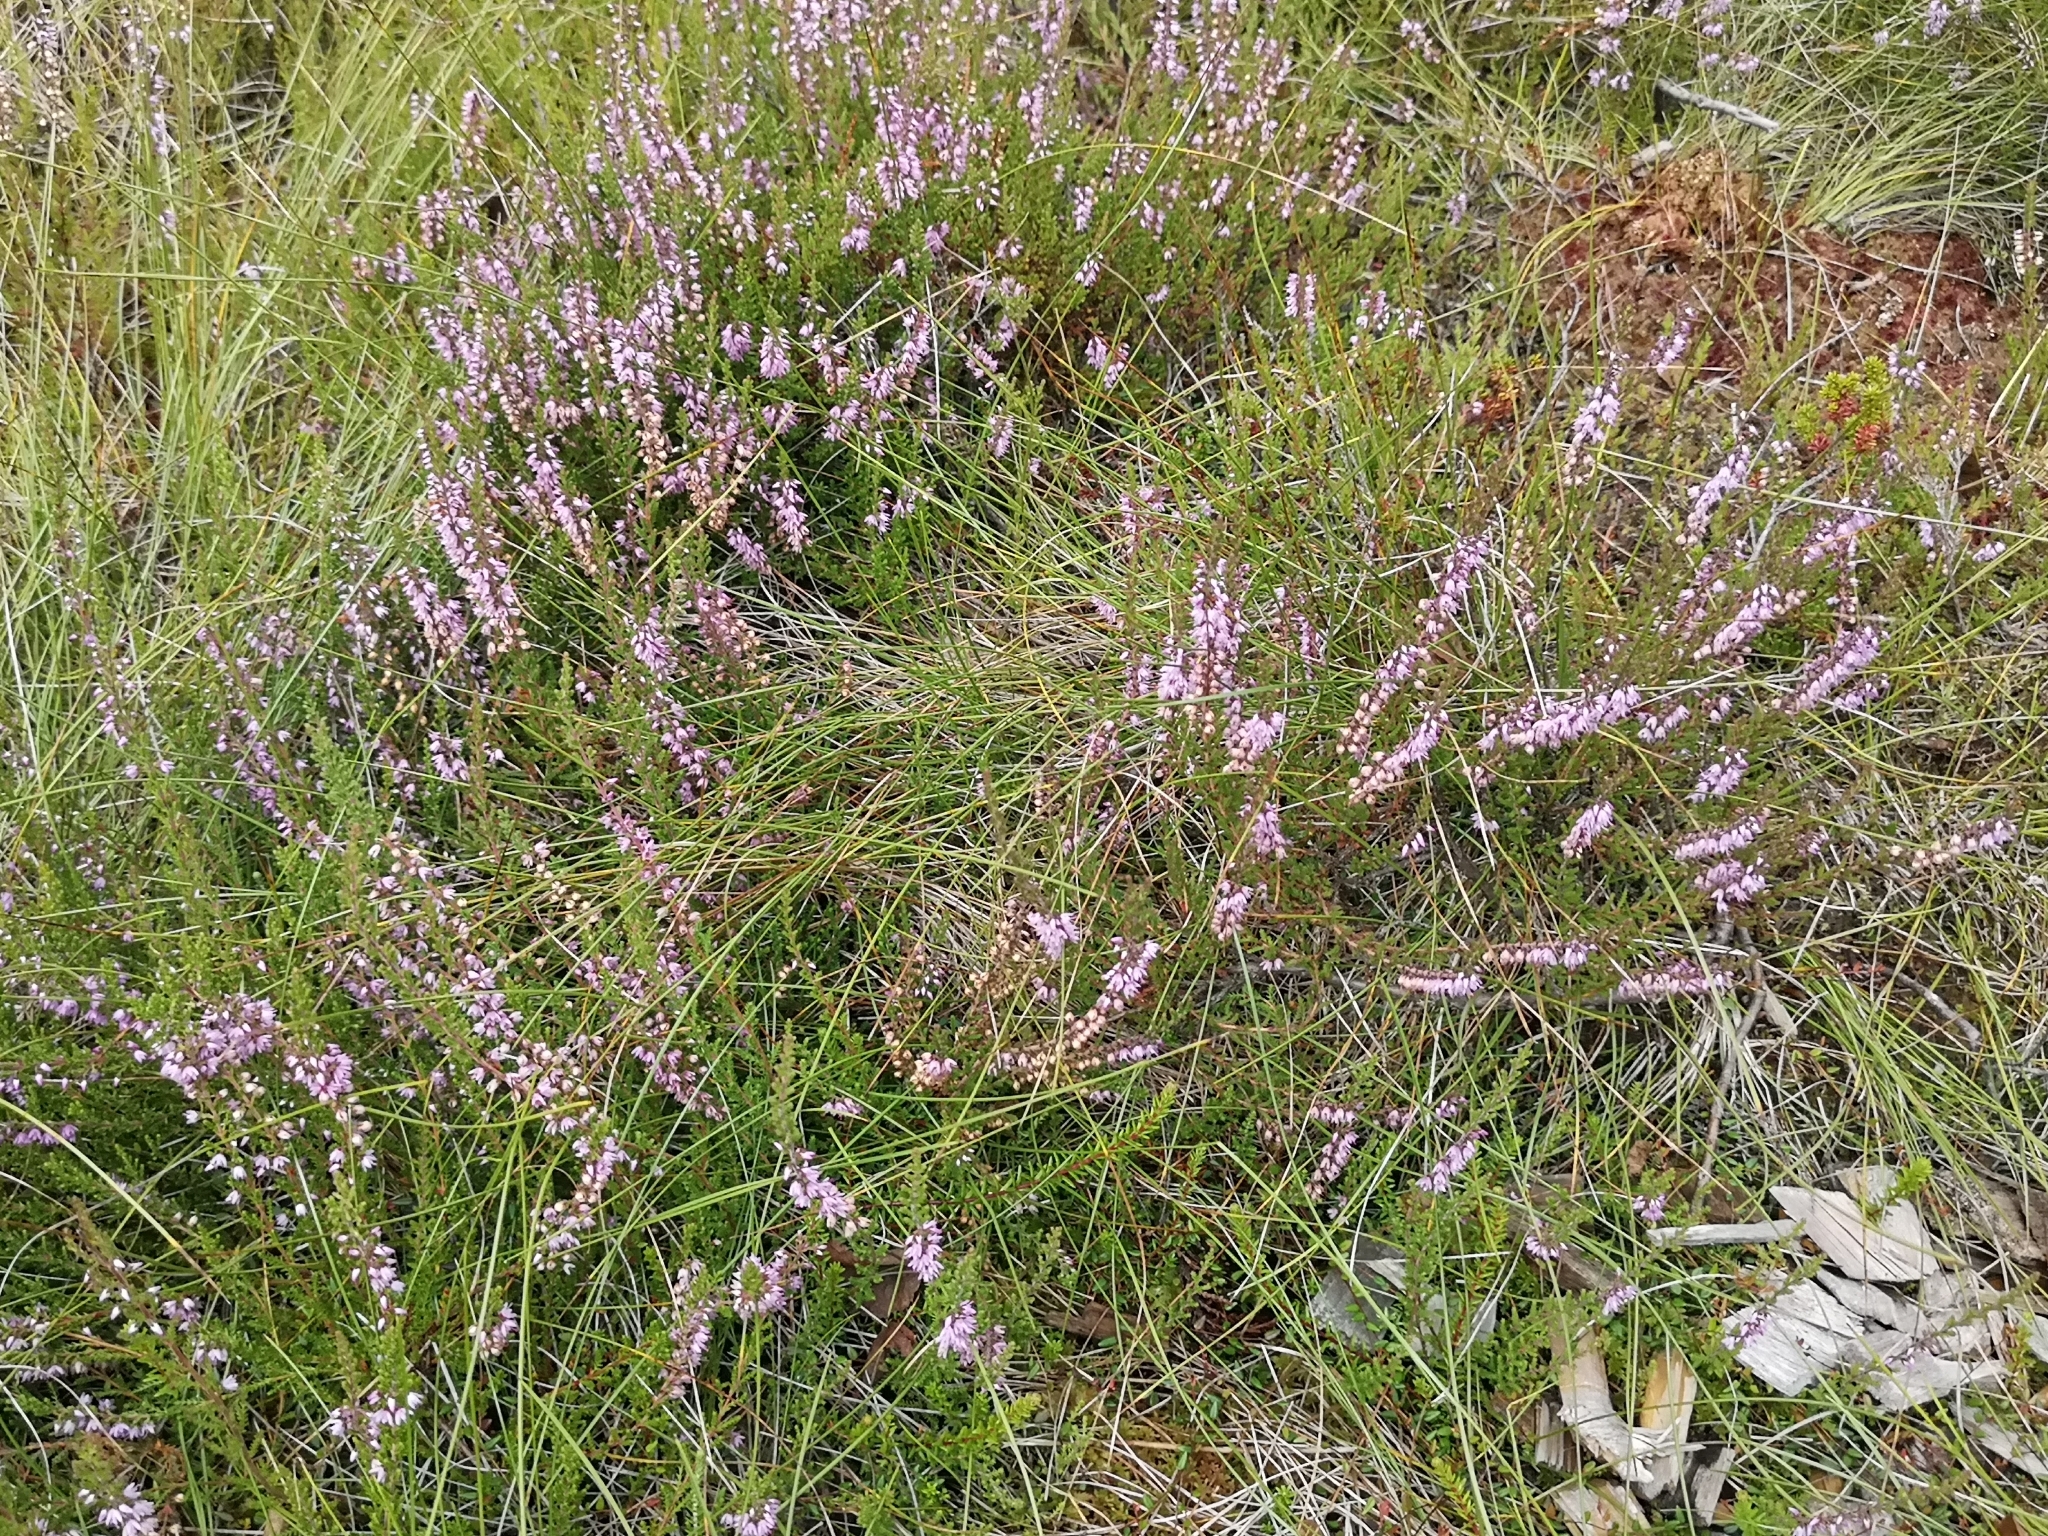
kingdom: Plantae
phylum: Tracheophyta
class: Magnoliopsida
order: Ericales
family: Ericaceae
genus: Calluna
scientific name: Calluna vulgaris
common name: Heather
